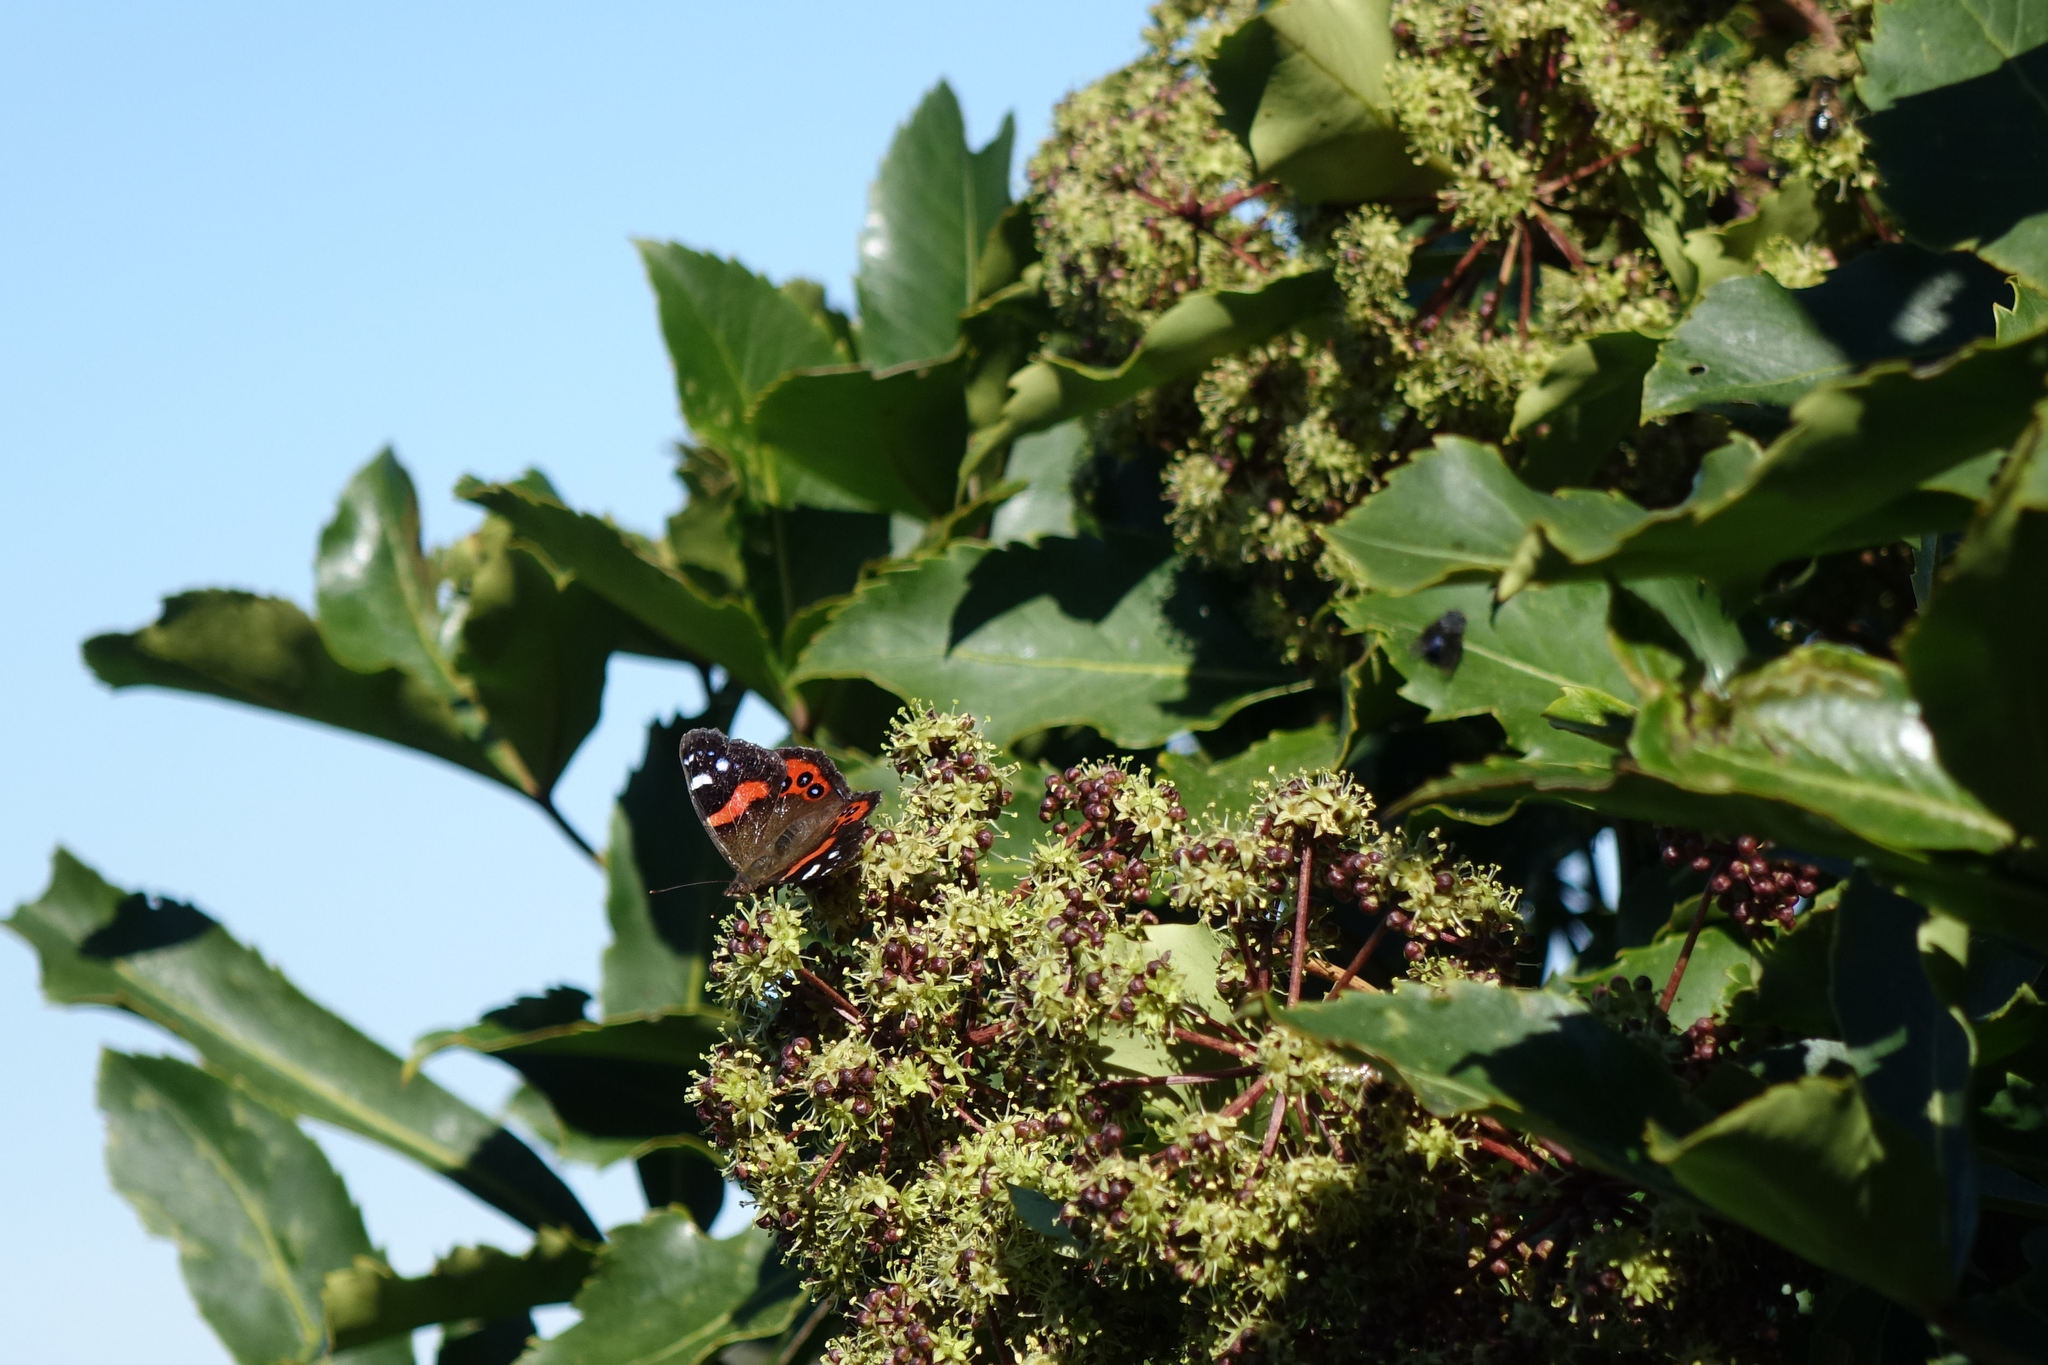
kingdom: Animalia
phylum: Arthropoda
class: Insecta
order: Lepidoptera
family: Nymphalidae
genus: Vanessa
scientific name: Vanessa gonerilla
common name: New zealand red admiral
